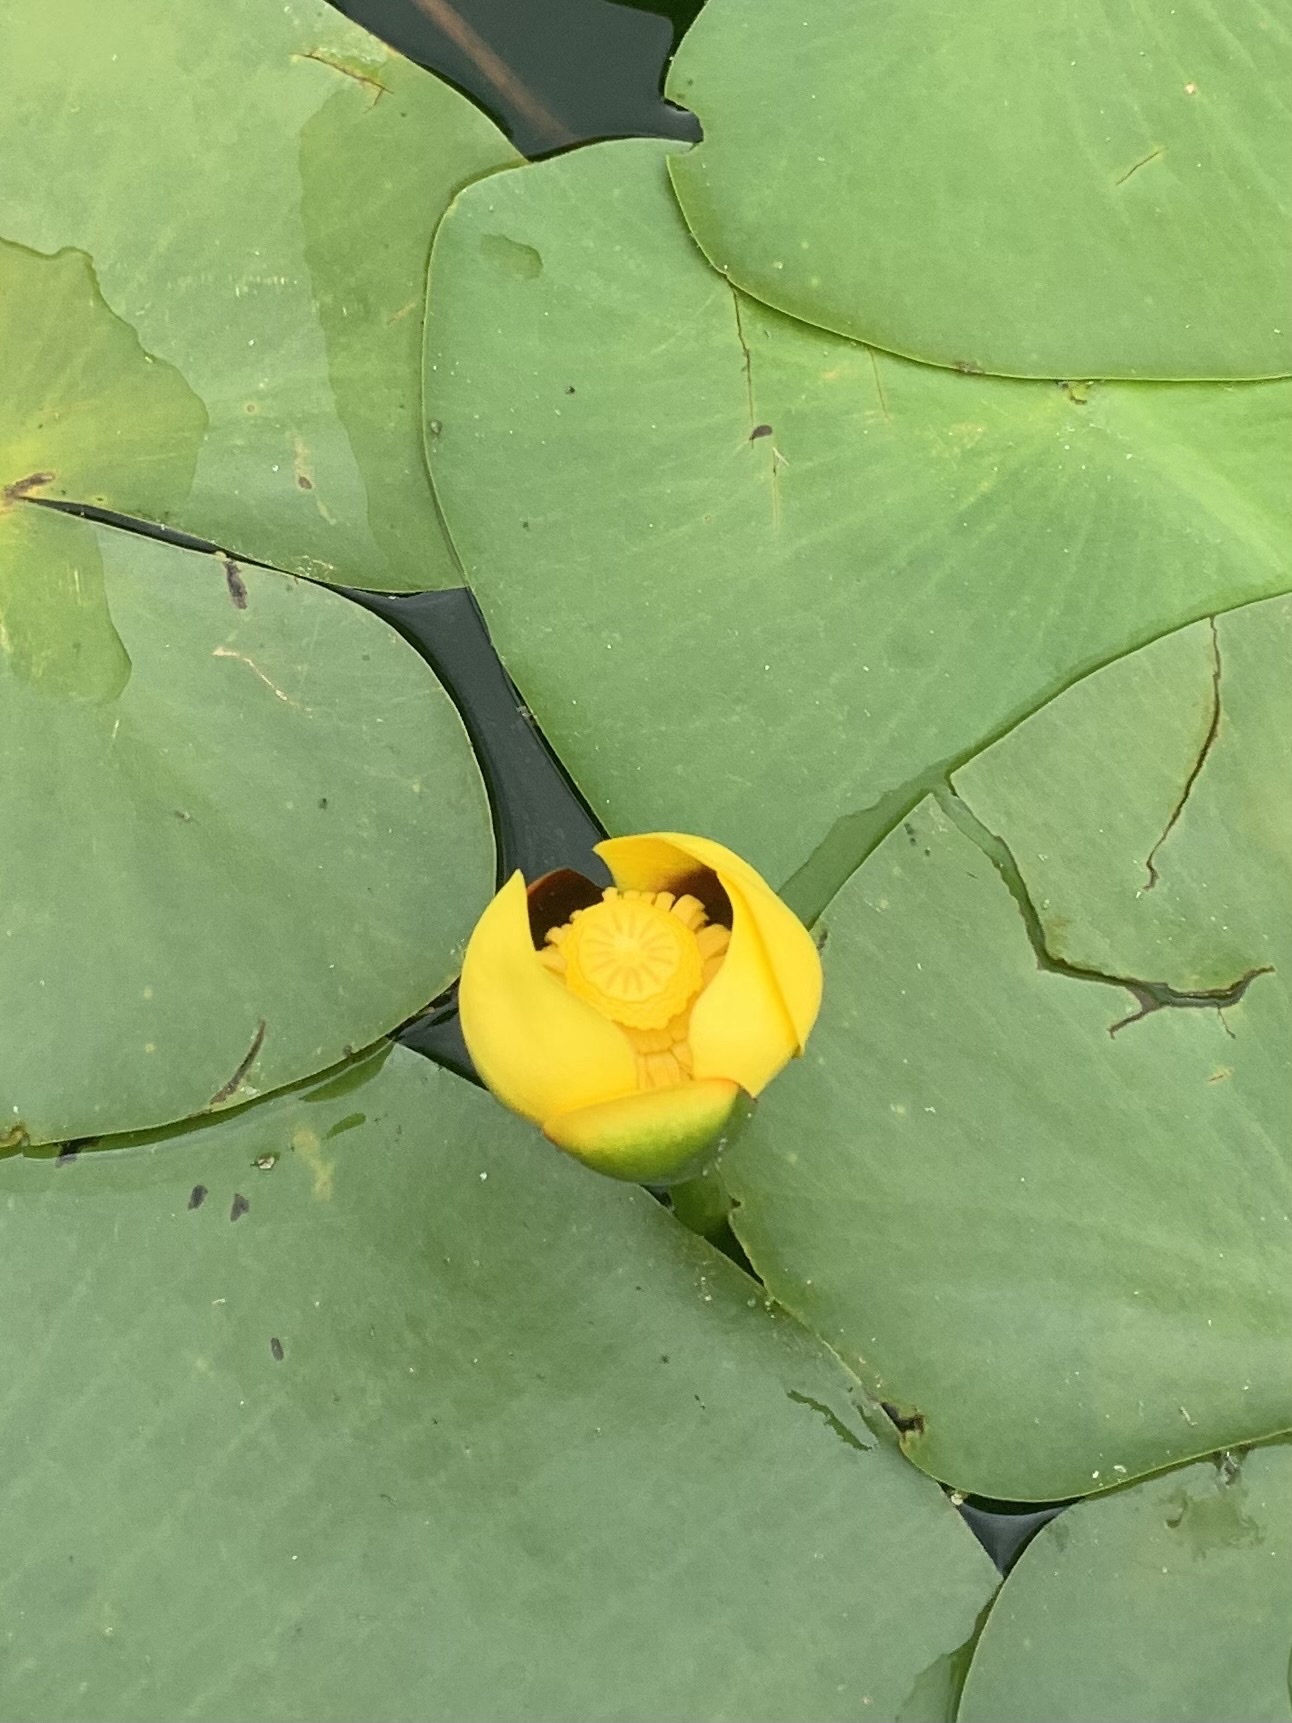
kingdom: Plantae
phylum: Tracheophyta
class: Magnoliopsida
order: Nymphaeales
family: Nymphaeaceae
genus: Nuphar
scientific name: Nuphar variegata
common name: Beaver-root
